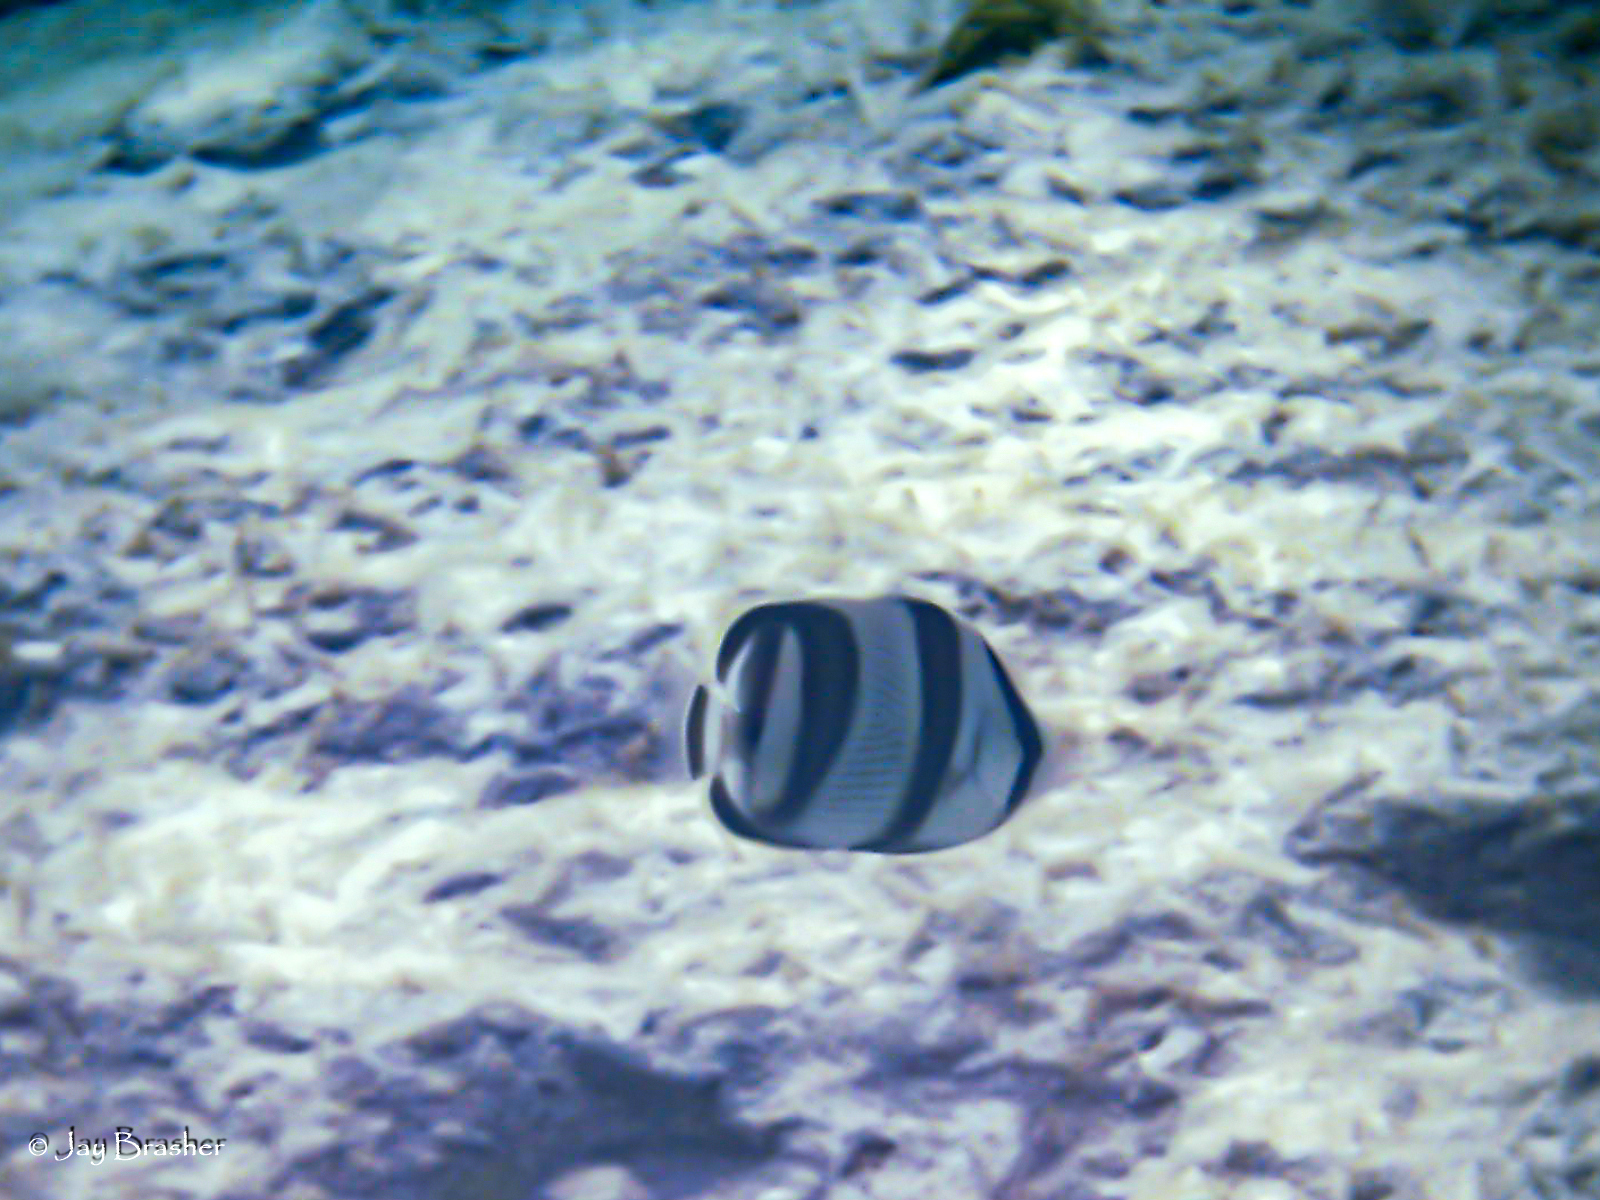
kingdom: Animalia
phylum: Chordata
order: Perciformes
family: Chaetodontidae
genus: Chaetodon
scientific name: Chaetodon striatus
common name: Banded butterflyfish
